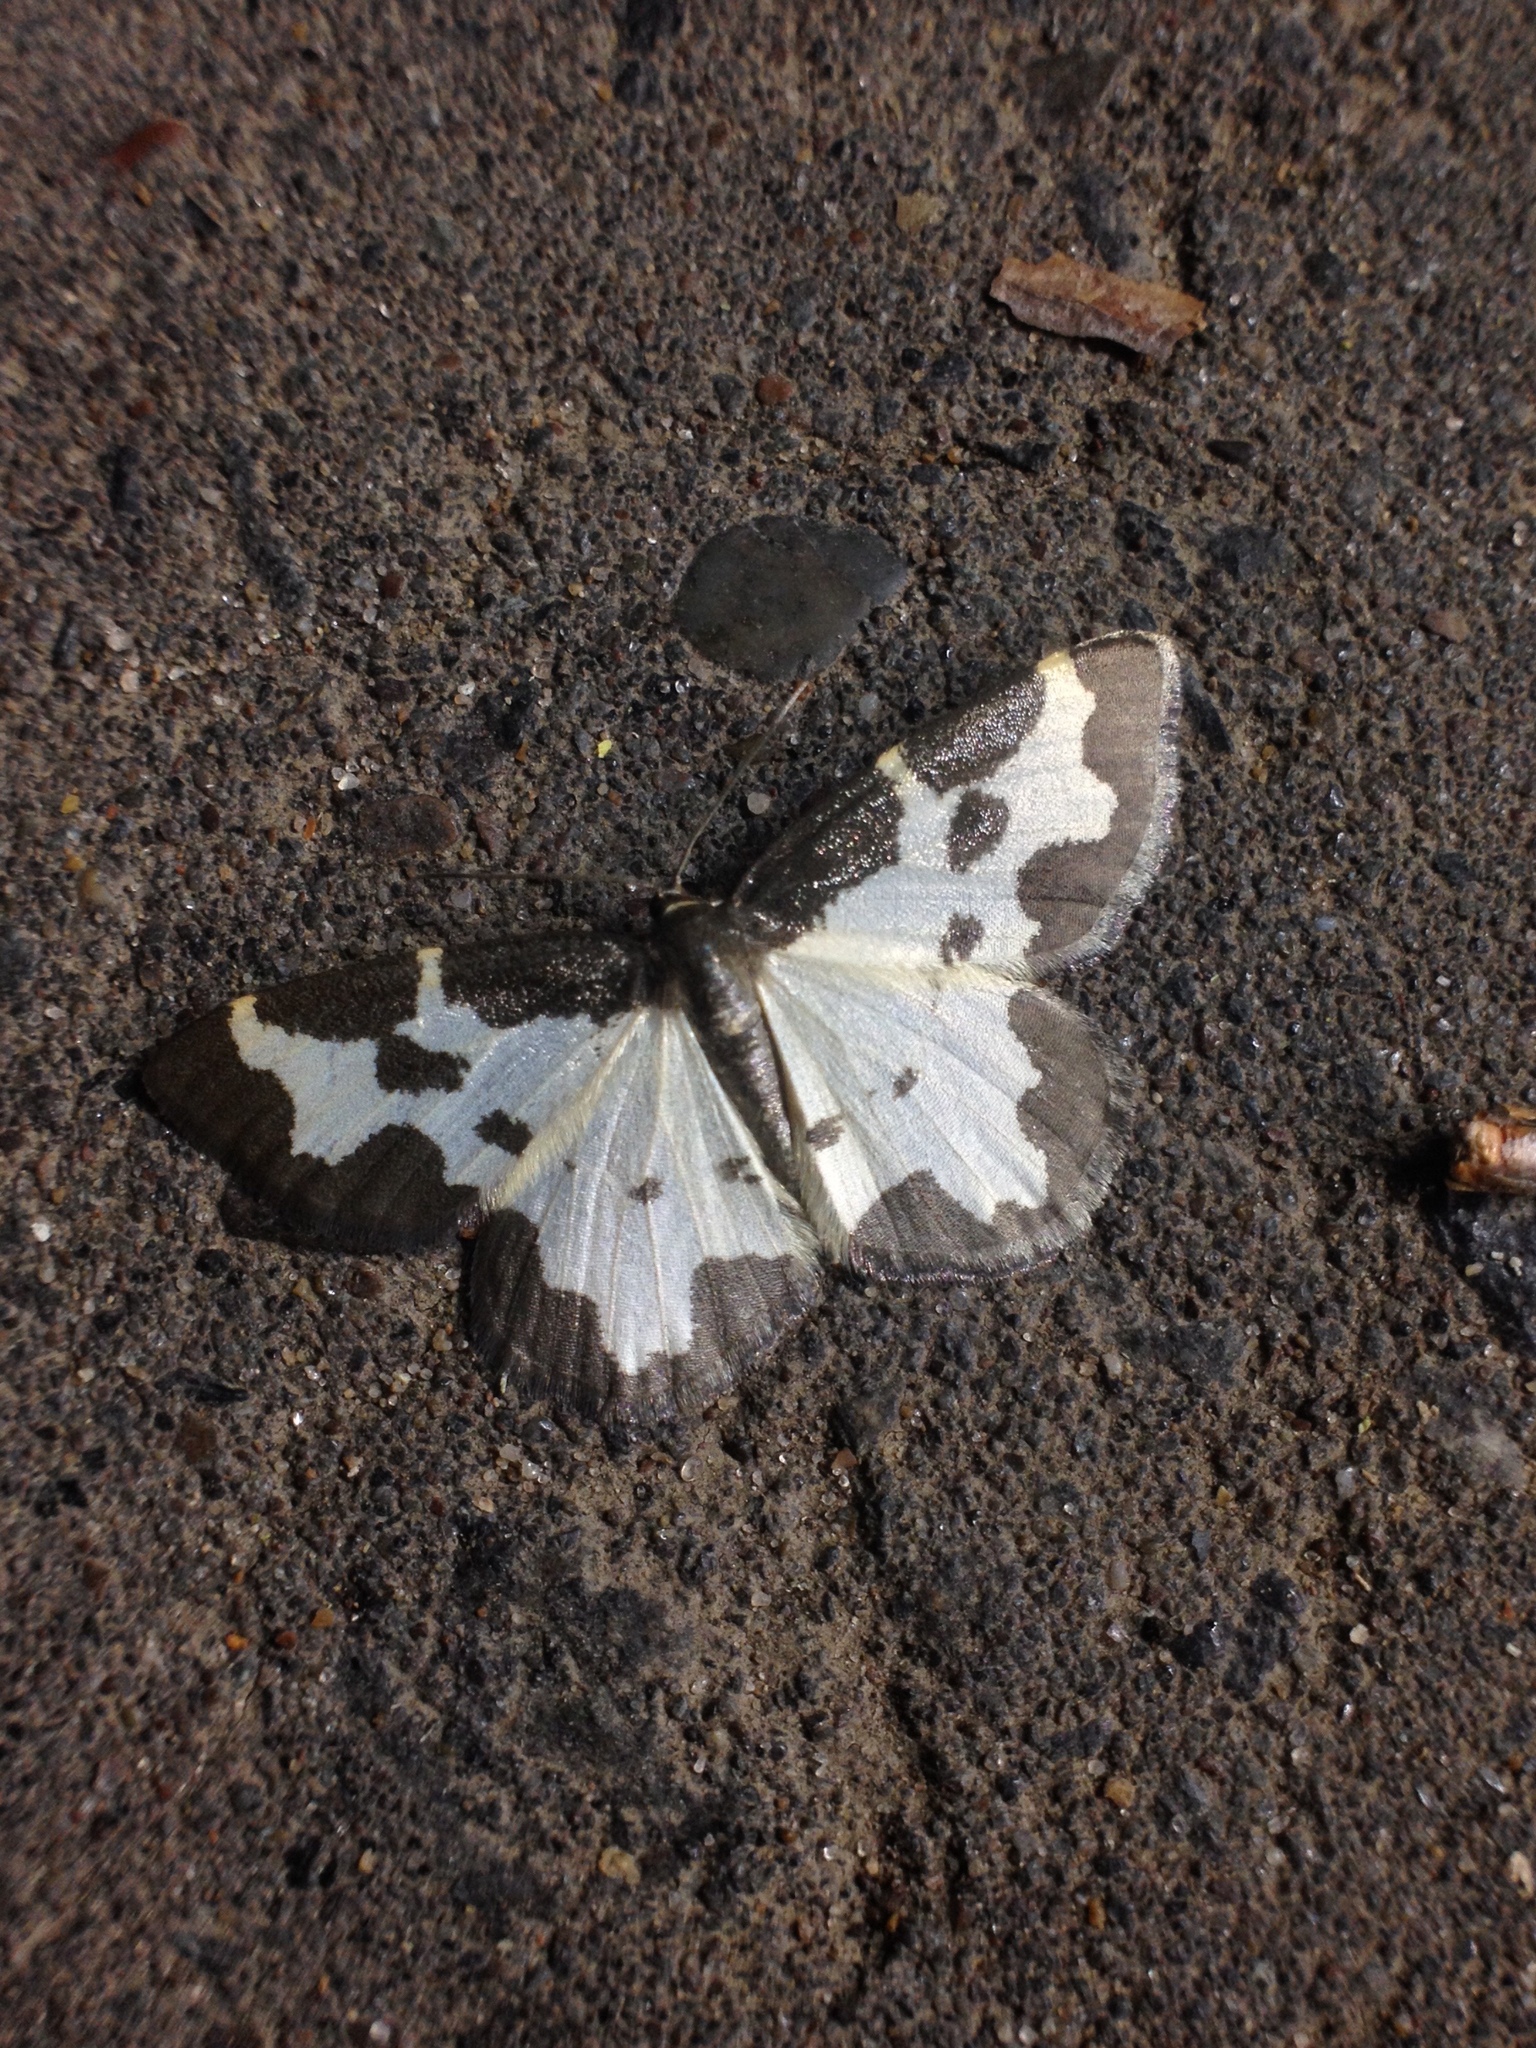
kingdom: Animalia
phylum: Arthropoda
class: Insecta
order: Lepidoptera
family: Geometridae
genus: Lomaspilis
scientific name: Lomaspilis marginata
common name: Clouded border
